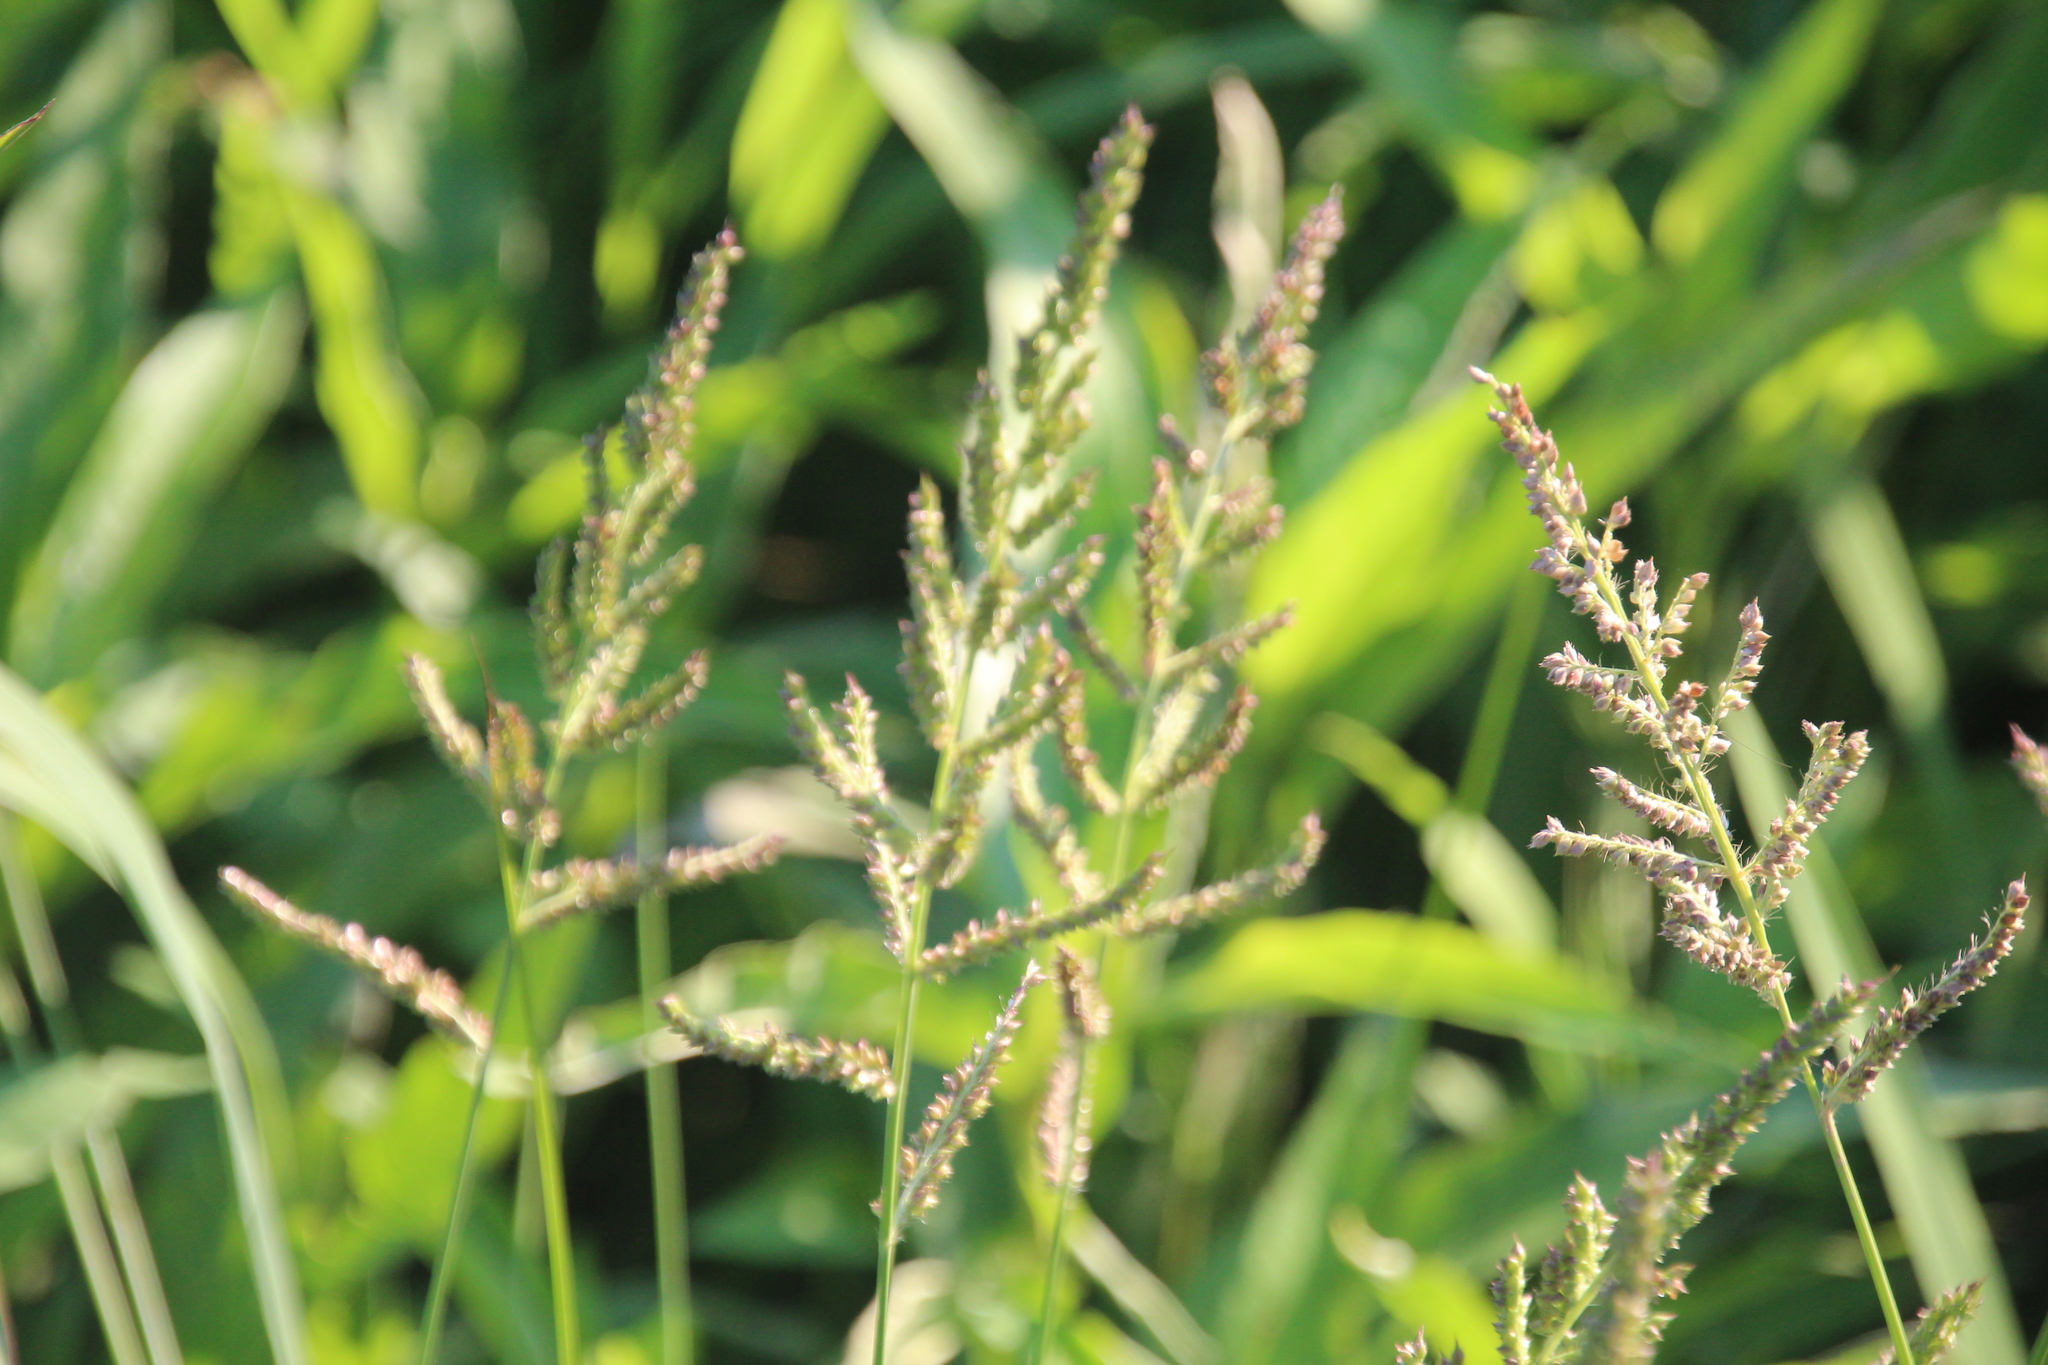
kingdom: Plantae
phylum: Tracheophyta
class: Liliopsida
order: Poales
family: Poaceae
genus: Echinochloa
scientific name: Echinochloa muricata
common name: American barnyard grass
